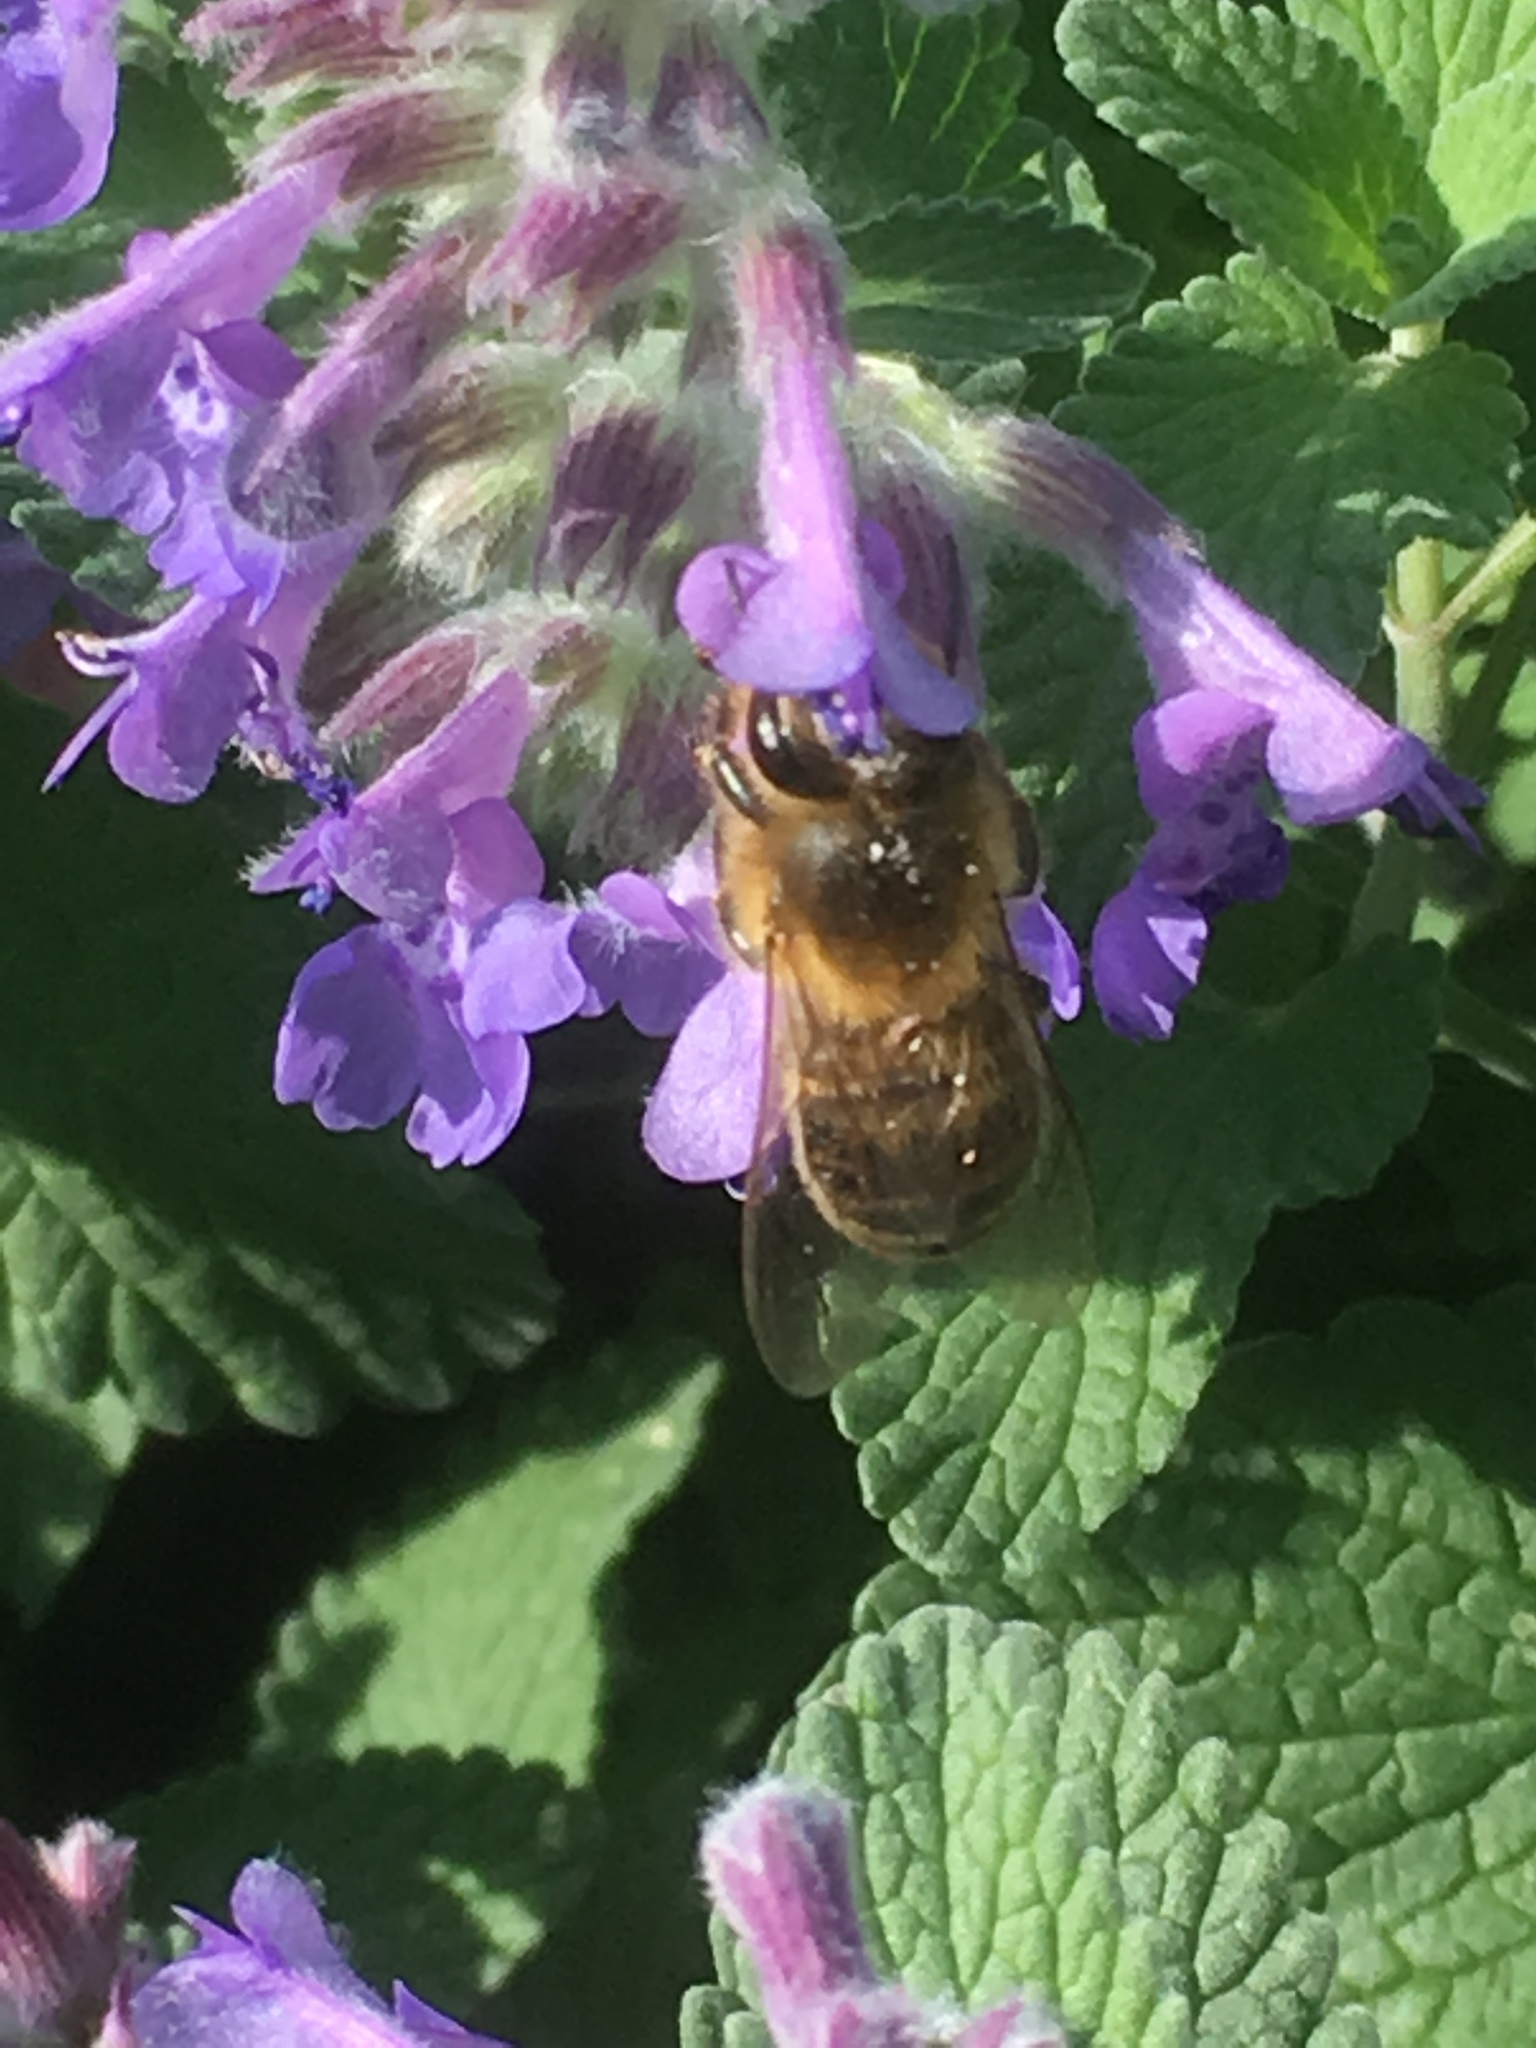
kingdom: Animalia
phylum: Arthropoda
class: Insecta
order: Hymenoptera
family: Apidae
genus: Apis
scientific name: Apis mellifera
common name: Honey bee
